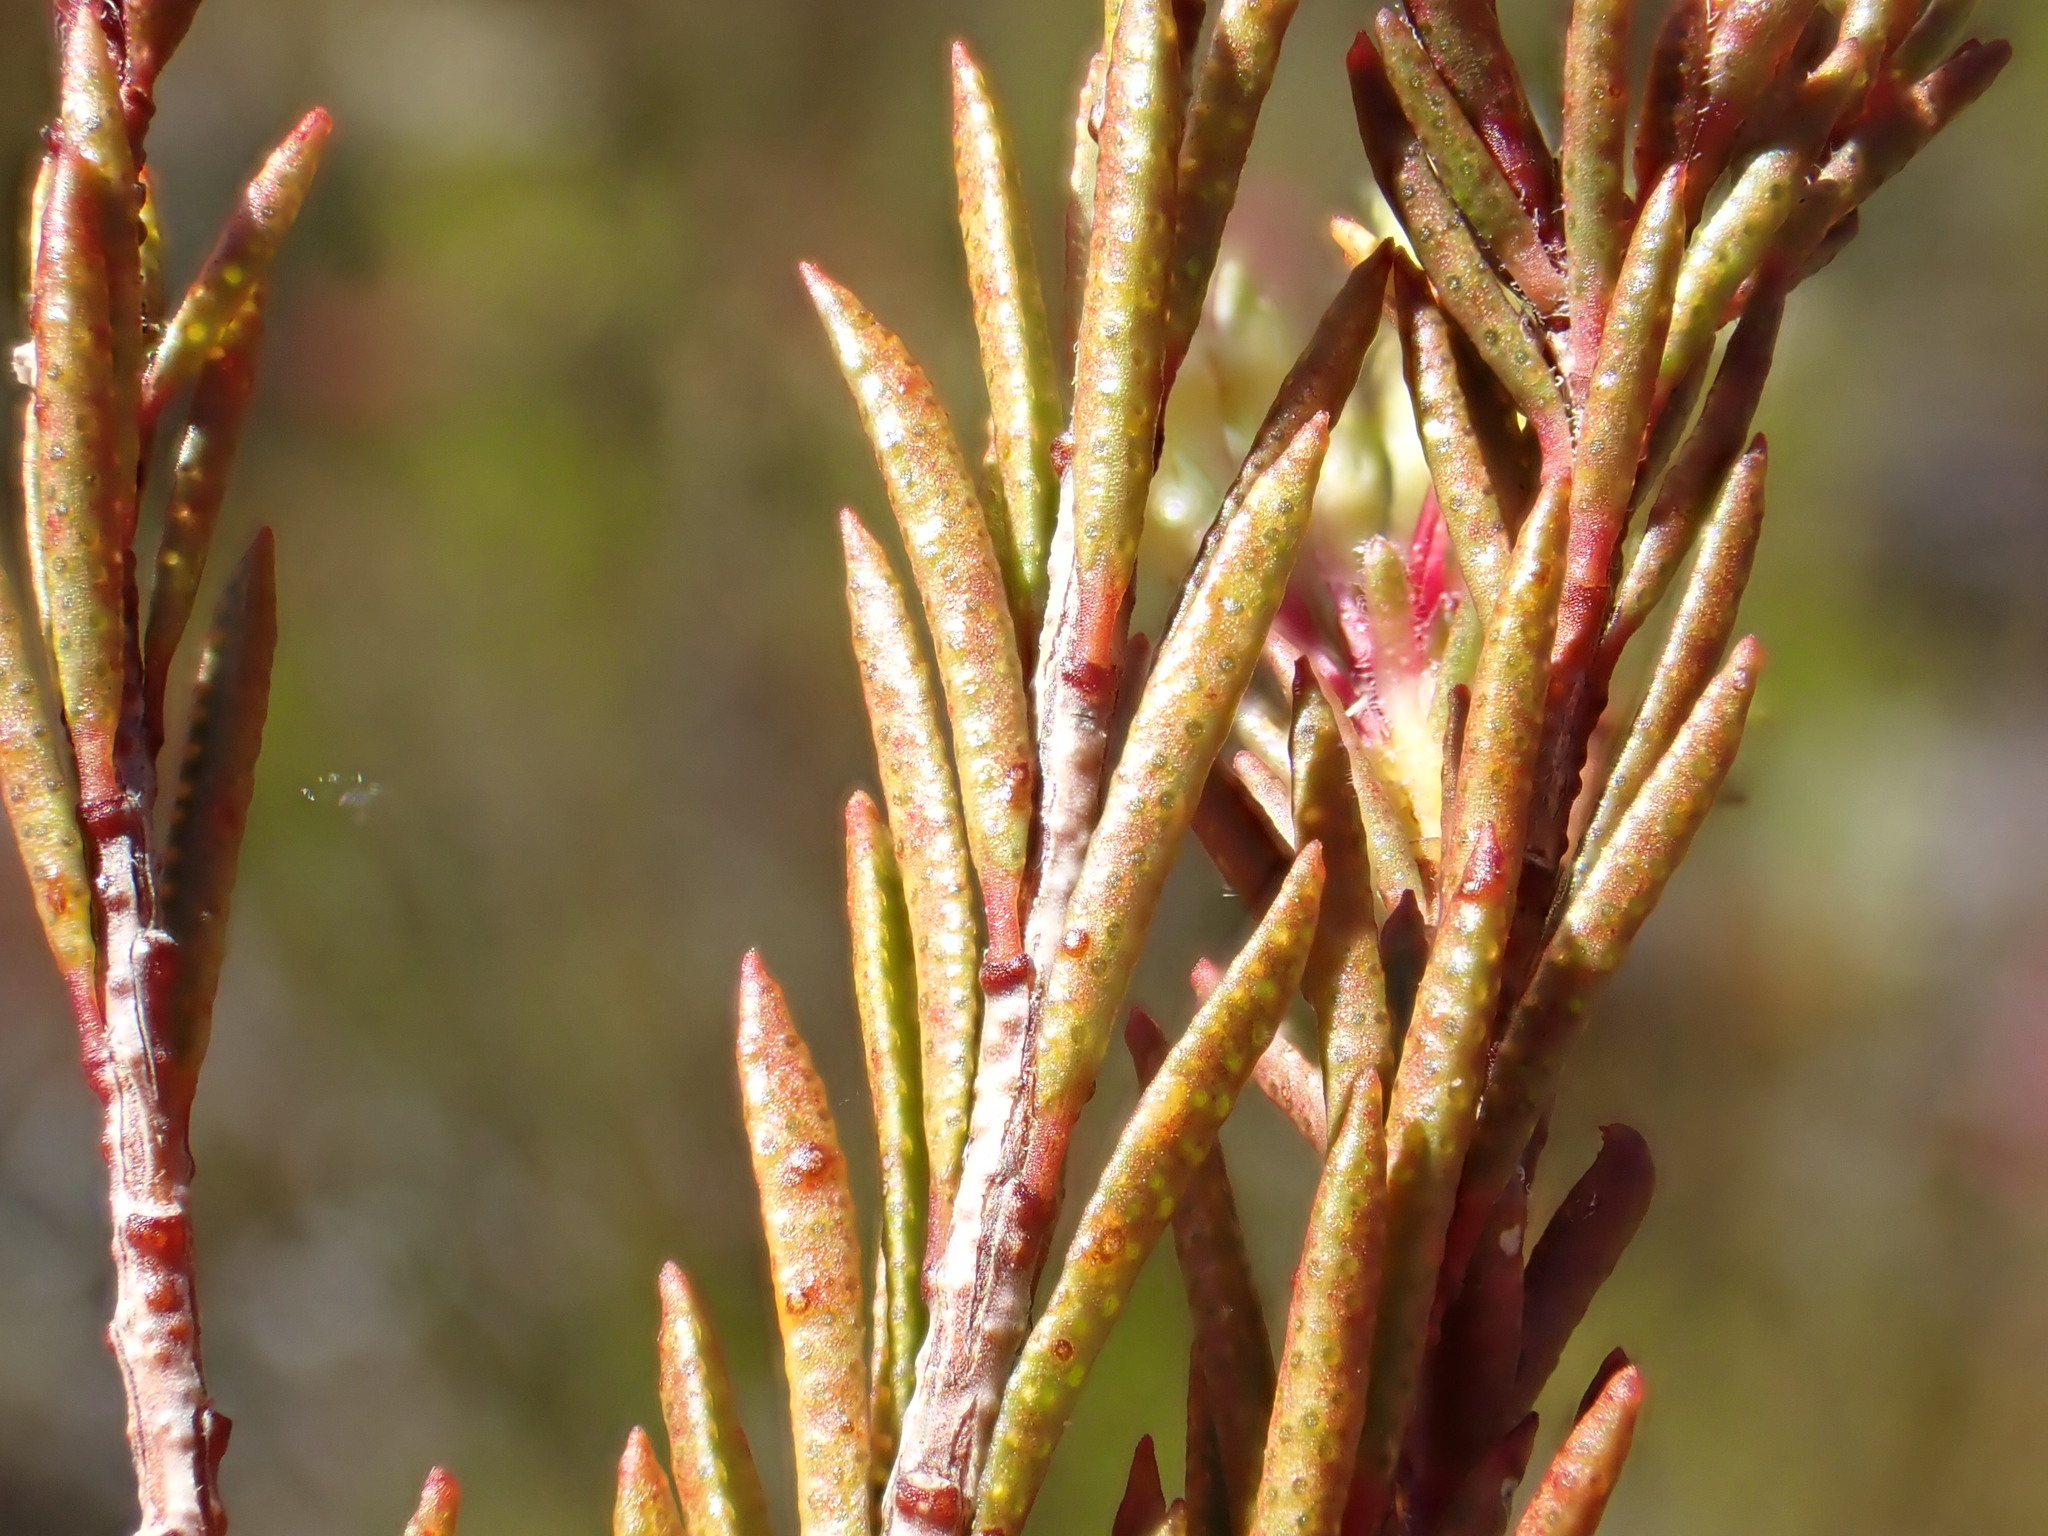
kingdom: Plantae
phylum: Tracheophyta
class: Magnoliopsida
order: Sapindales
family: Rutaceae
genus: Agathosma
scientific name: Agathosma bifida
